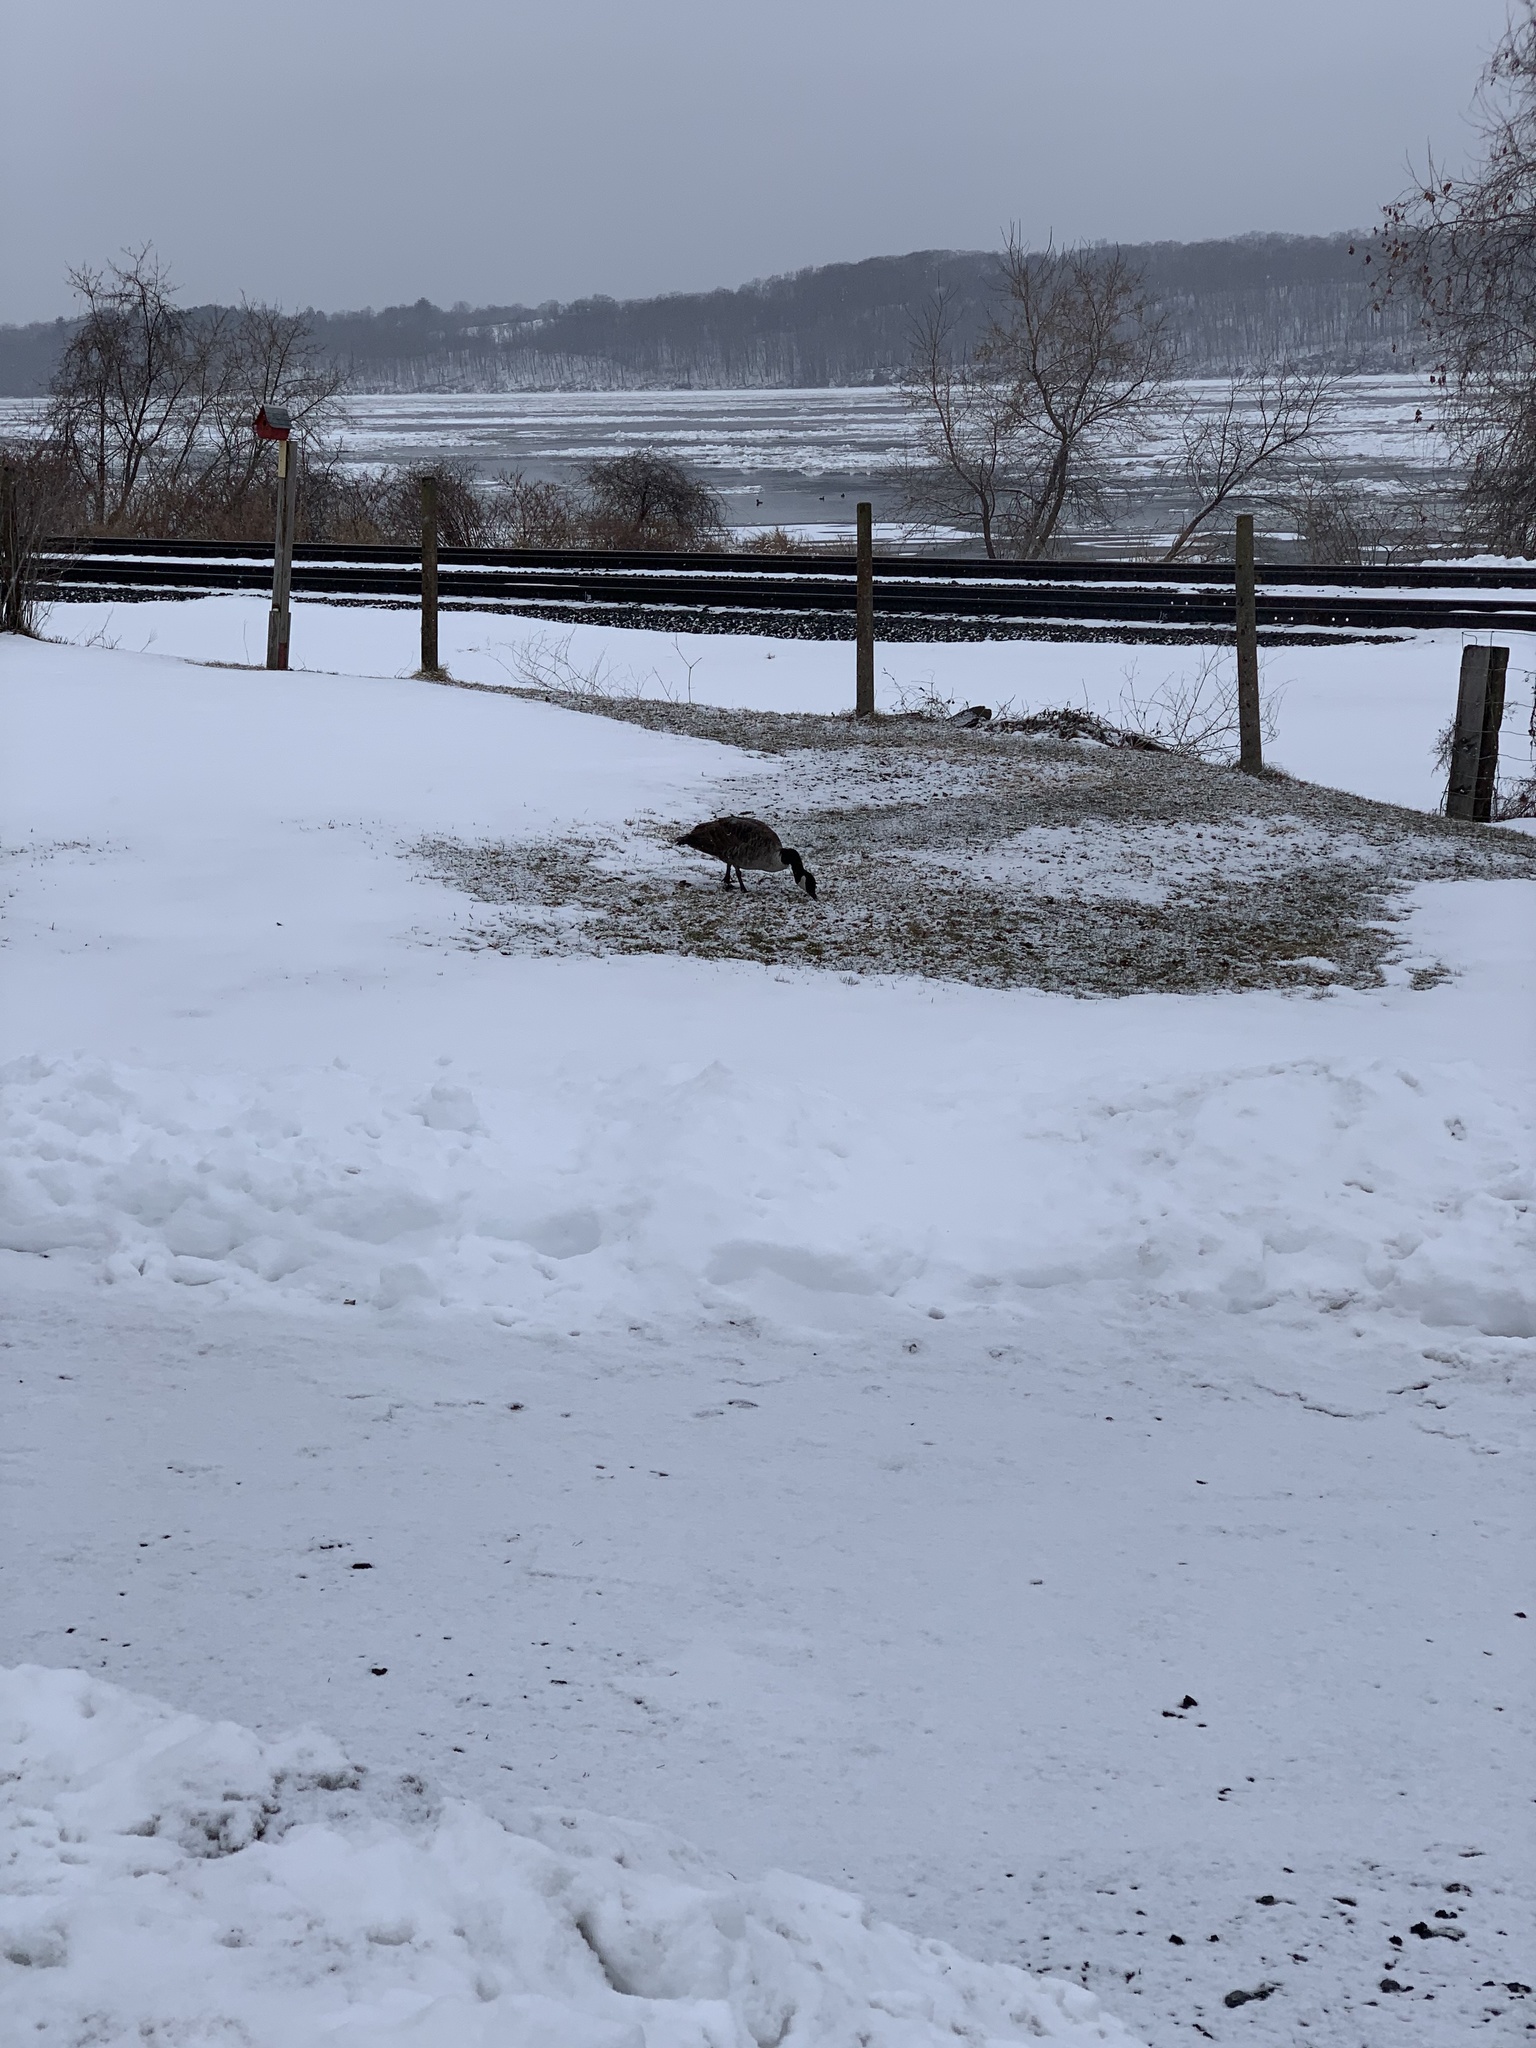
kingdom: Animalia
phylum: Chordata
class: Aves
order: Anseriformes
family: Anatidae
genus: Branta
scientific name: Branta canadensis
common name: Canada goose
